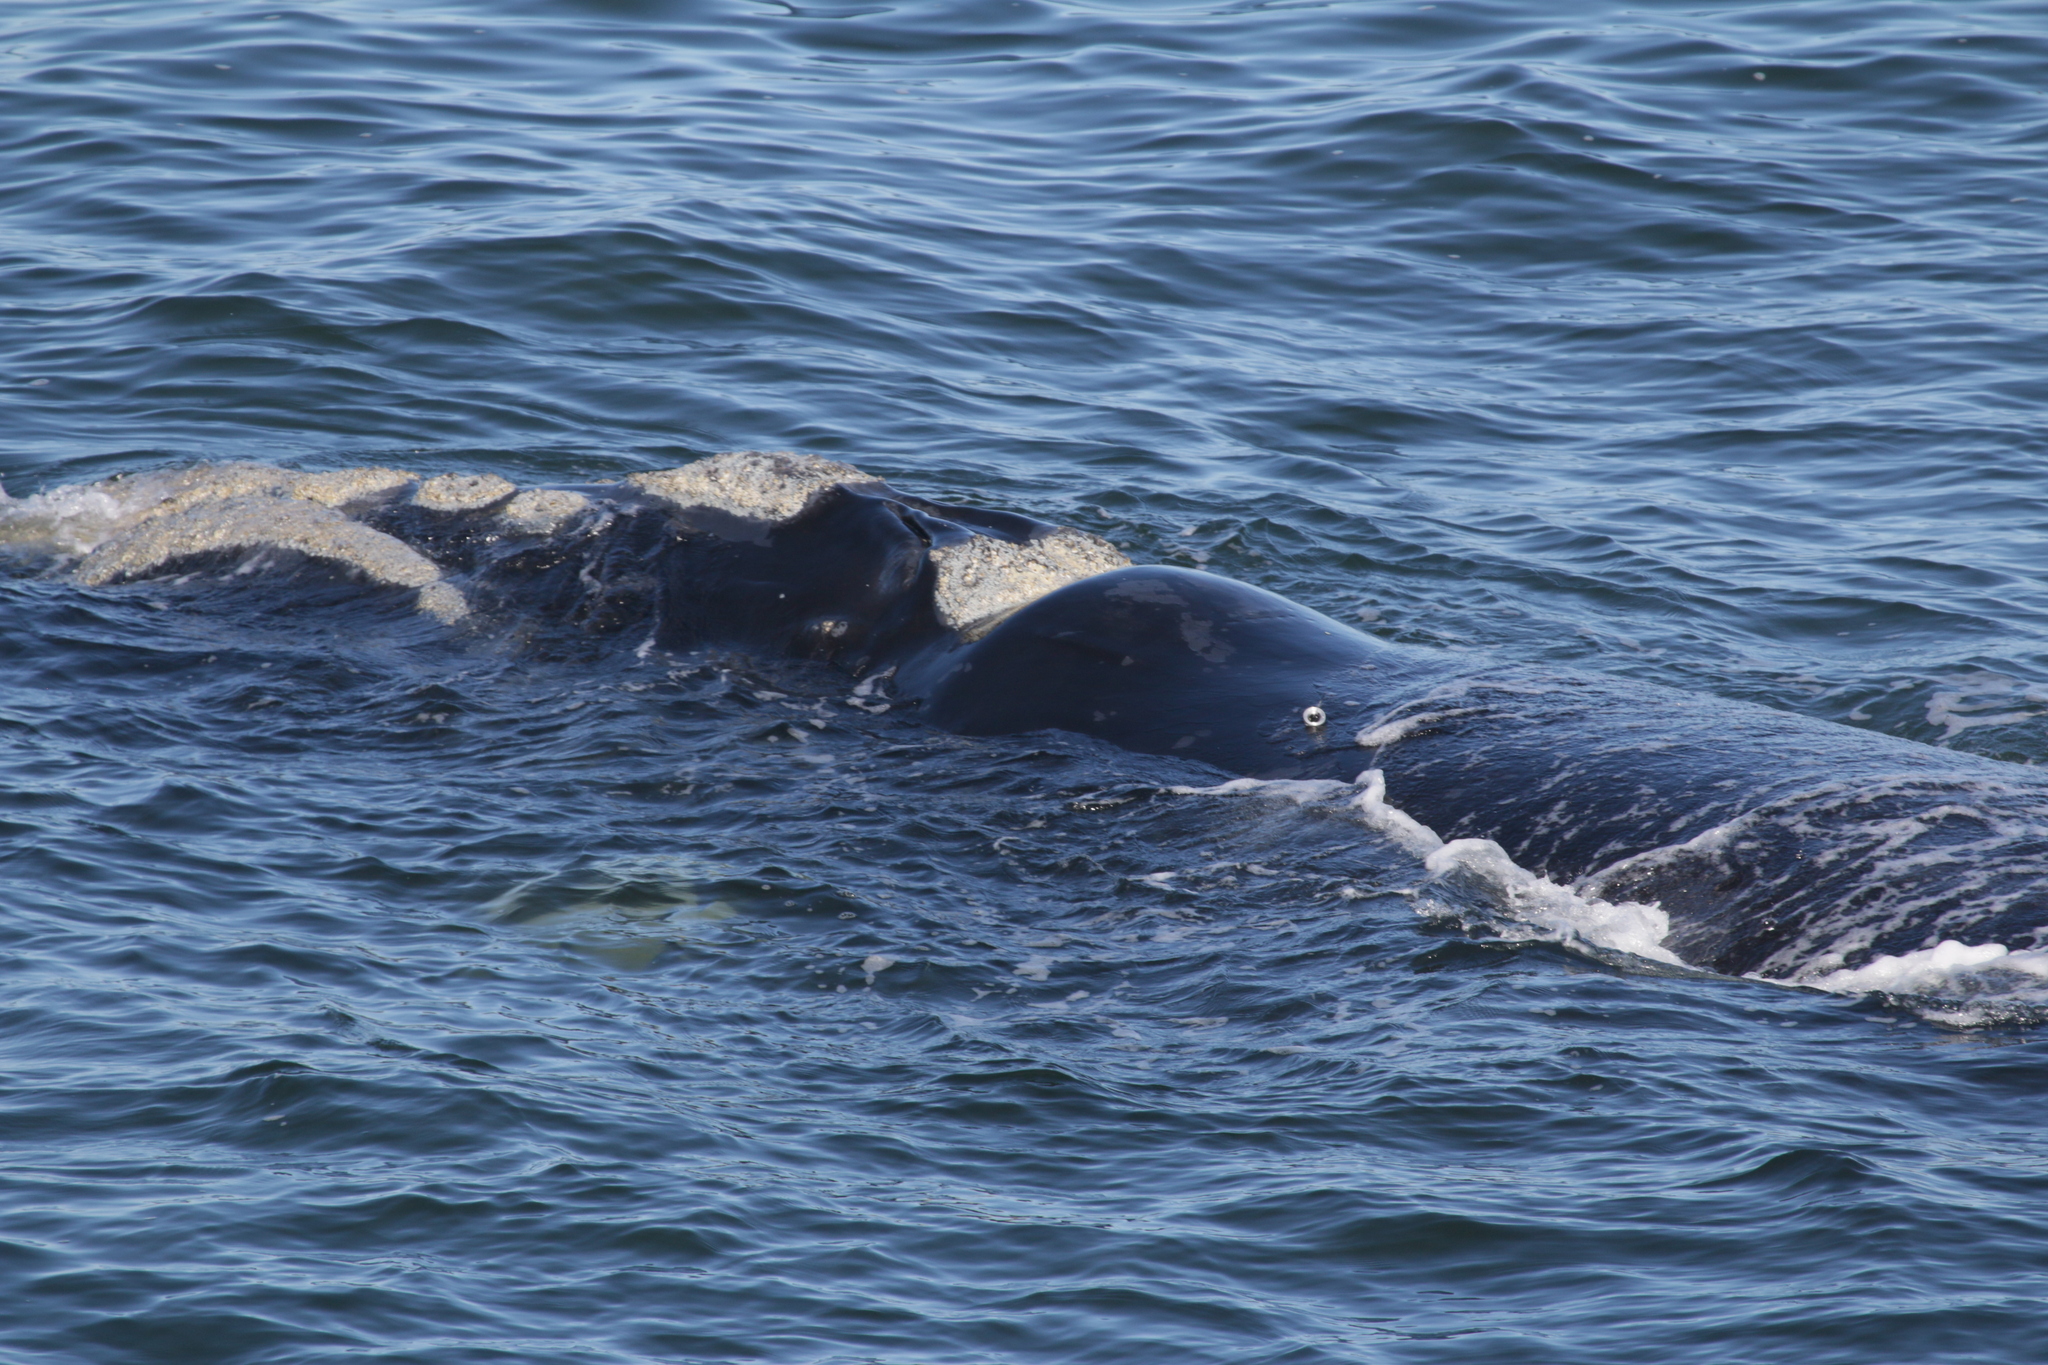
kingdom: Animalia
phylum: Chordata
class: Mammalia
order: Cetacea
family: Balaenidae
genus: Eubalaena
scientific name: Eubalaena australis
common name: Southern right whale
